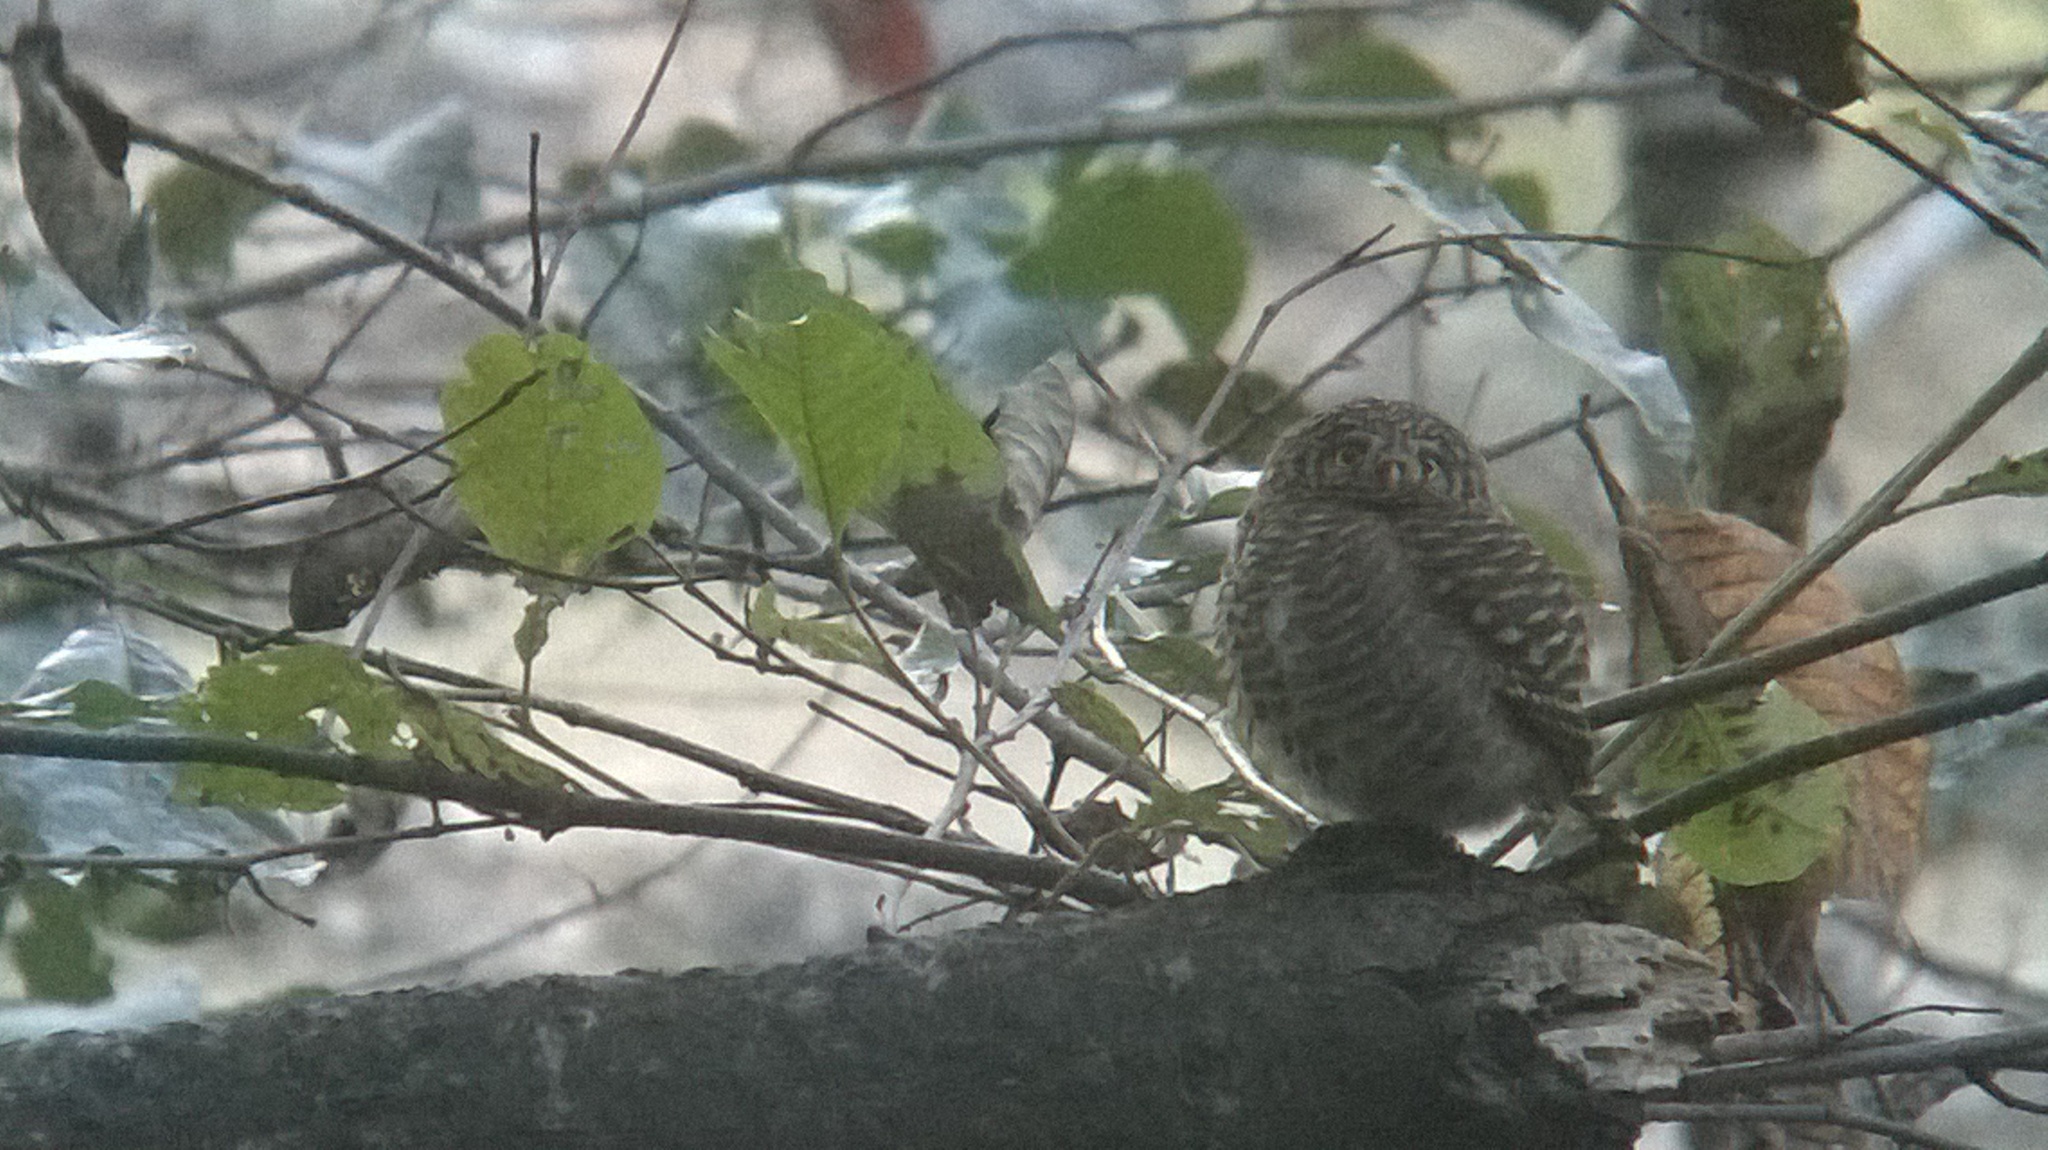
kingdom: Animalia
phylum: Chordata
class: Aves
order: Strigiformes
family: Strigidae
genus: Glaucidium
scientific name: Glaucidium brodiei
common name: Collared owlet
